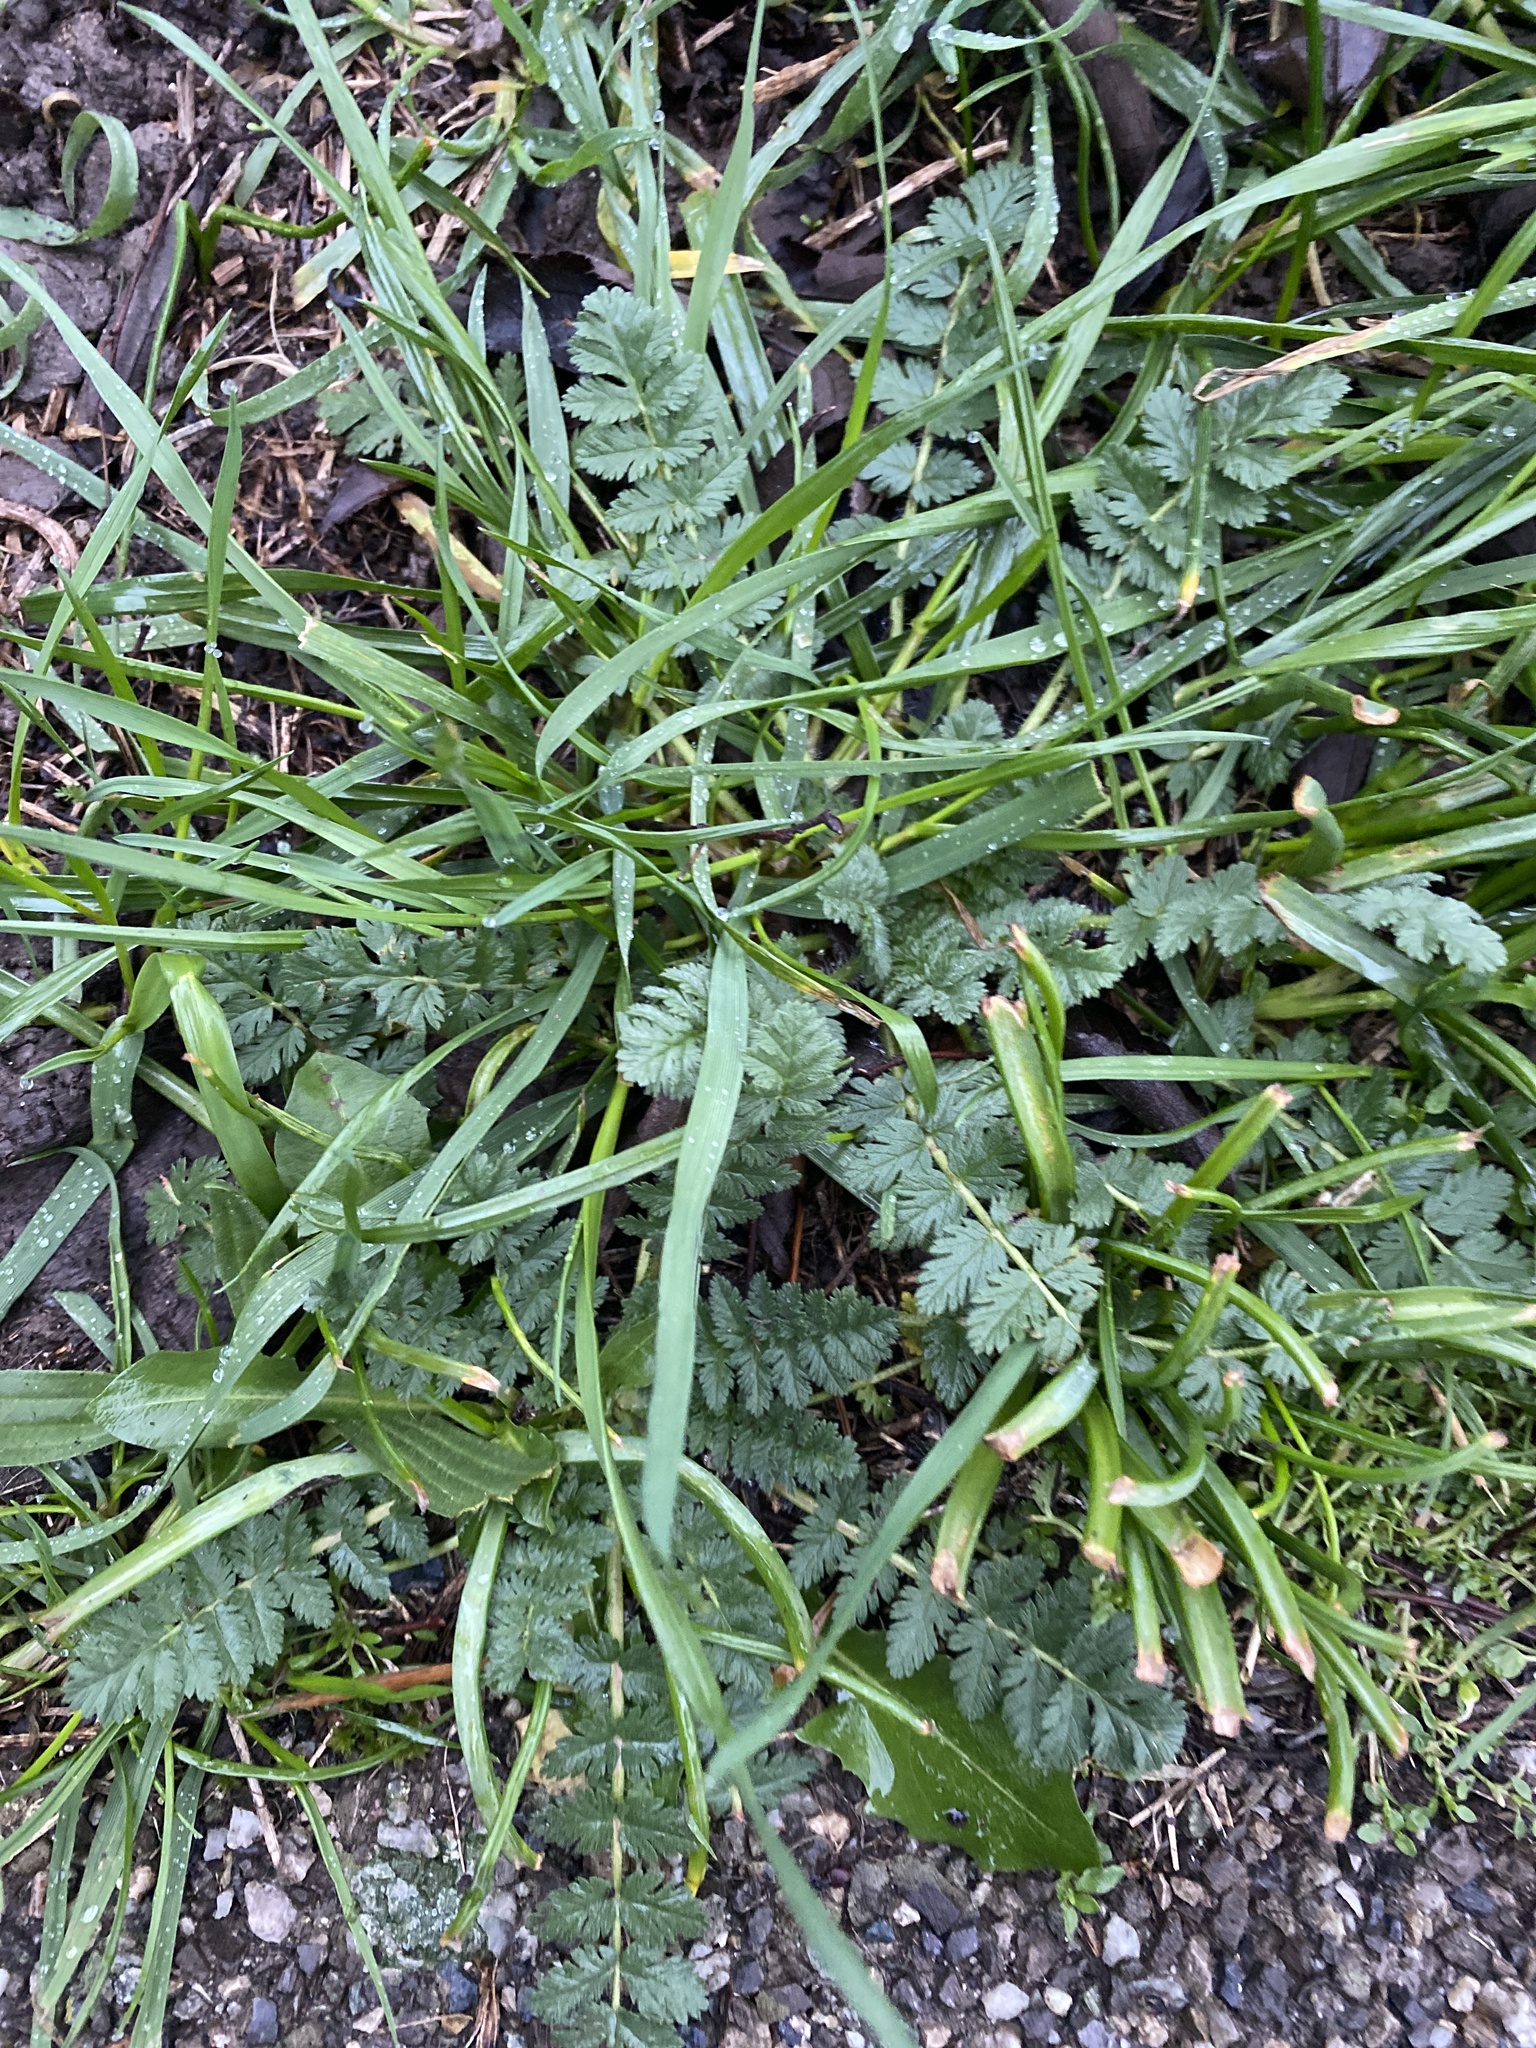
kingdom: Plantae
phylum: Tracheophyta
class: Magnoliopsida
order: Geraniales
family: Geraniaceae
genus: Erodium
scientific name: Erodium cicutarium
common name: Common stork's-bill
